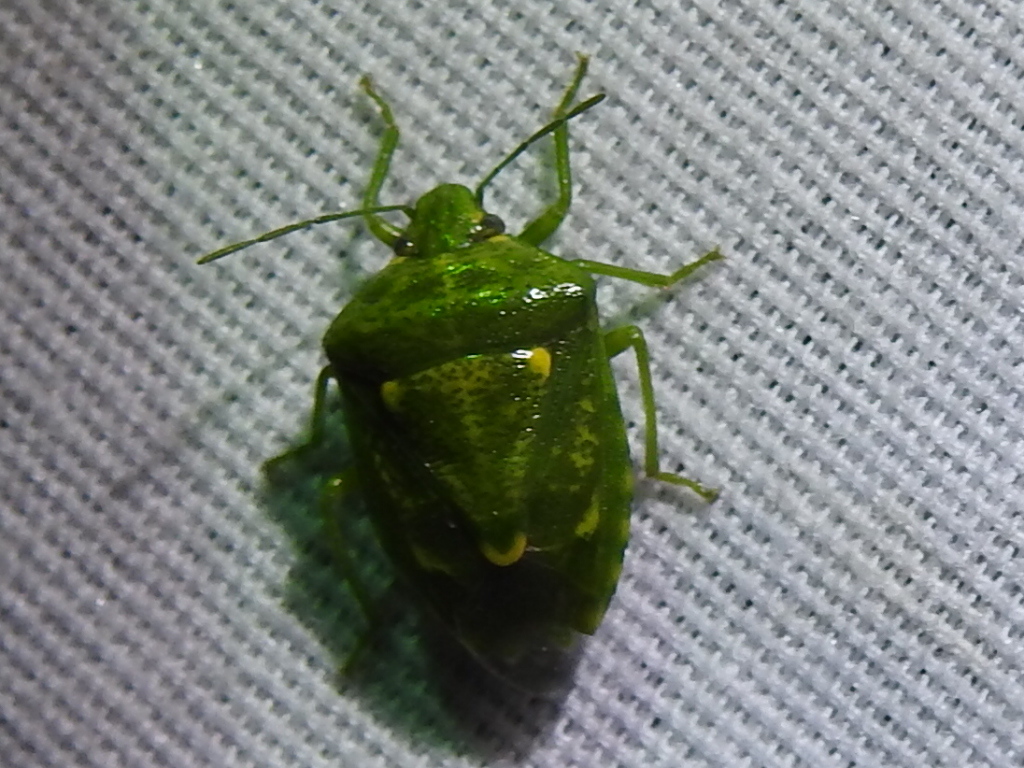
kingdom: Animalia
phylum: Arthropoda
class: Insecta
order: Hemiptera
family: Pentatomidae
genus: Banasa
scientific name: Banasa euchlora
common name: Cedar berry bug
